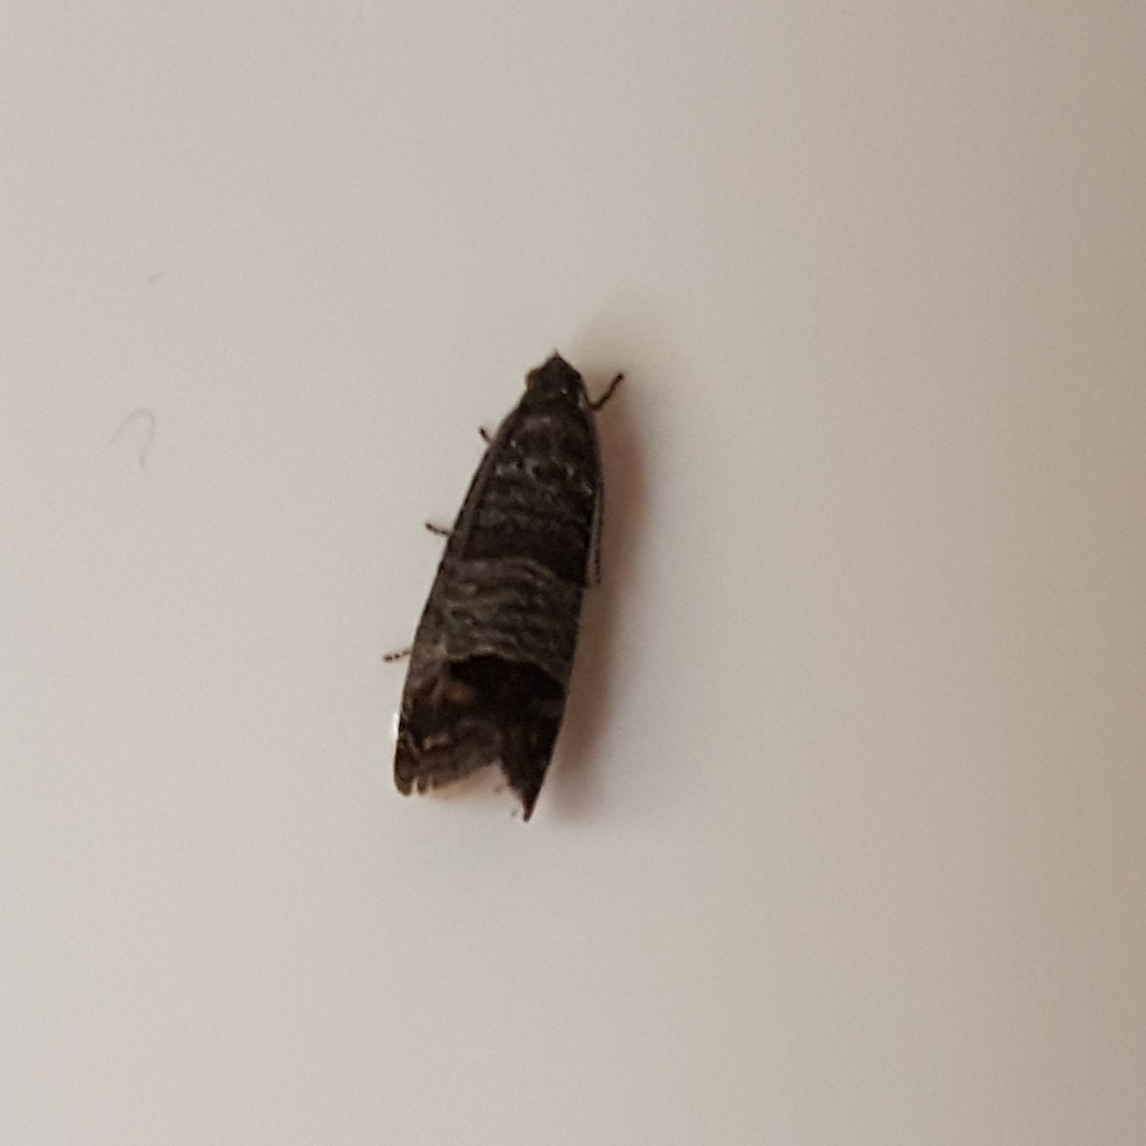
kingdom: Animalia
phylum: Arthropoda
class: Insecta
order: Lepidoptera
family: Tortricidae
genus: Cydia
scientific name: Cydia pomonella
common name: Codling moth
